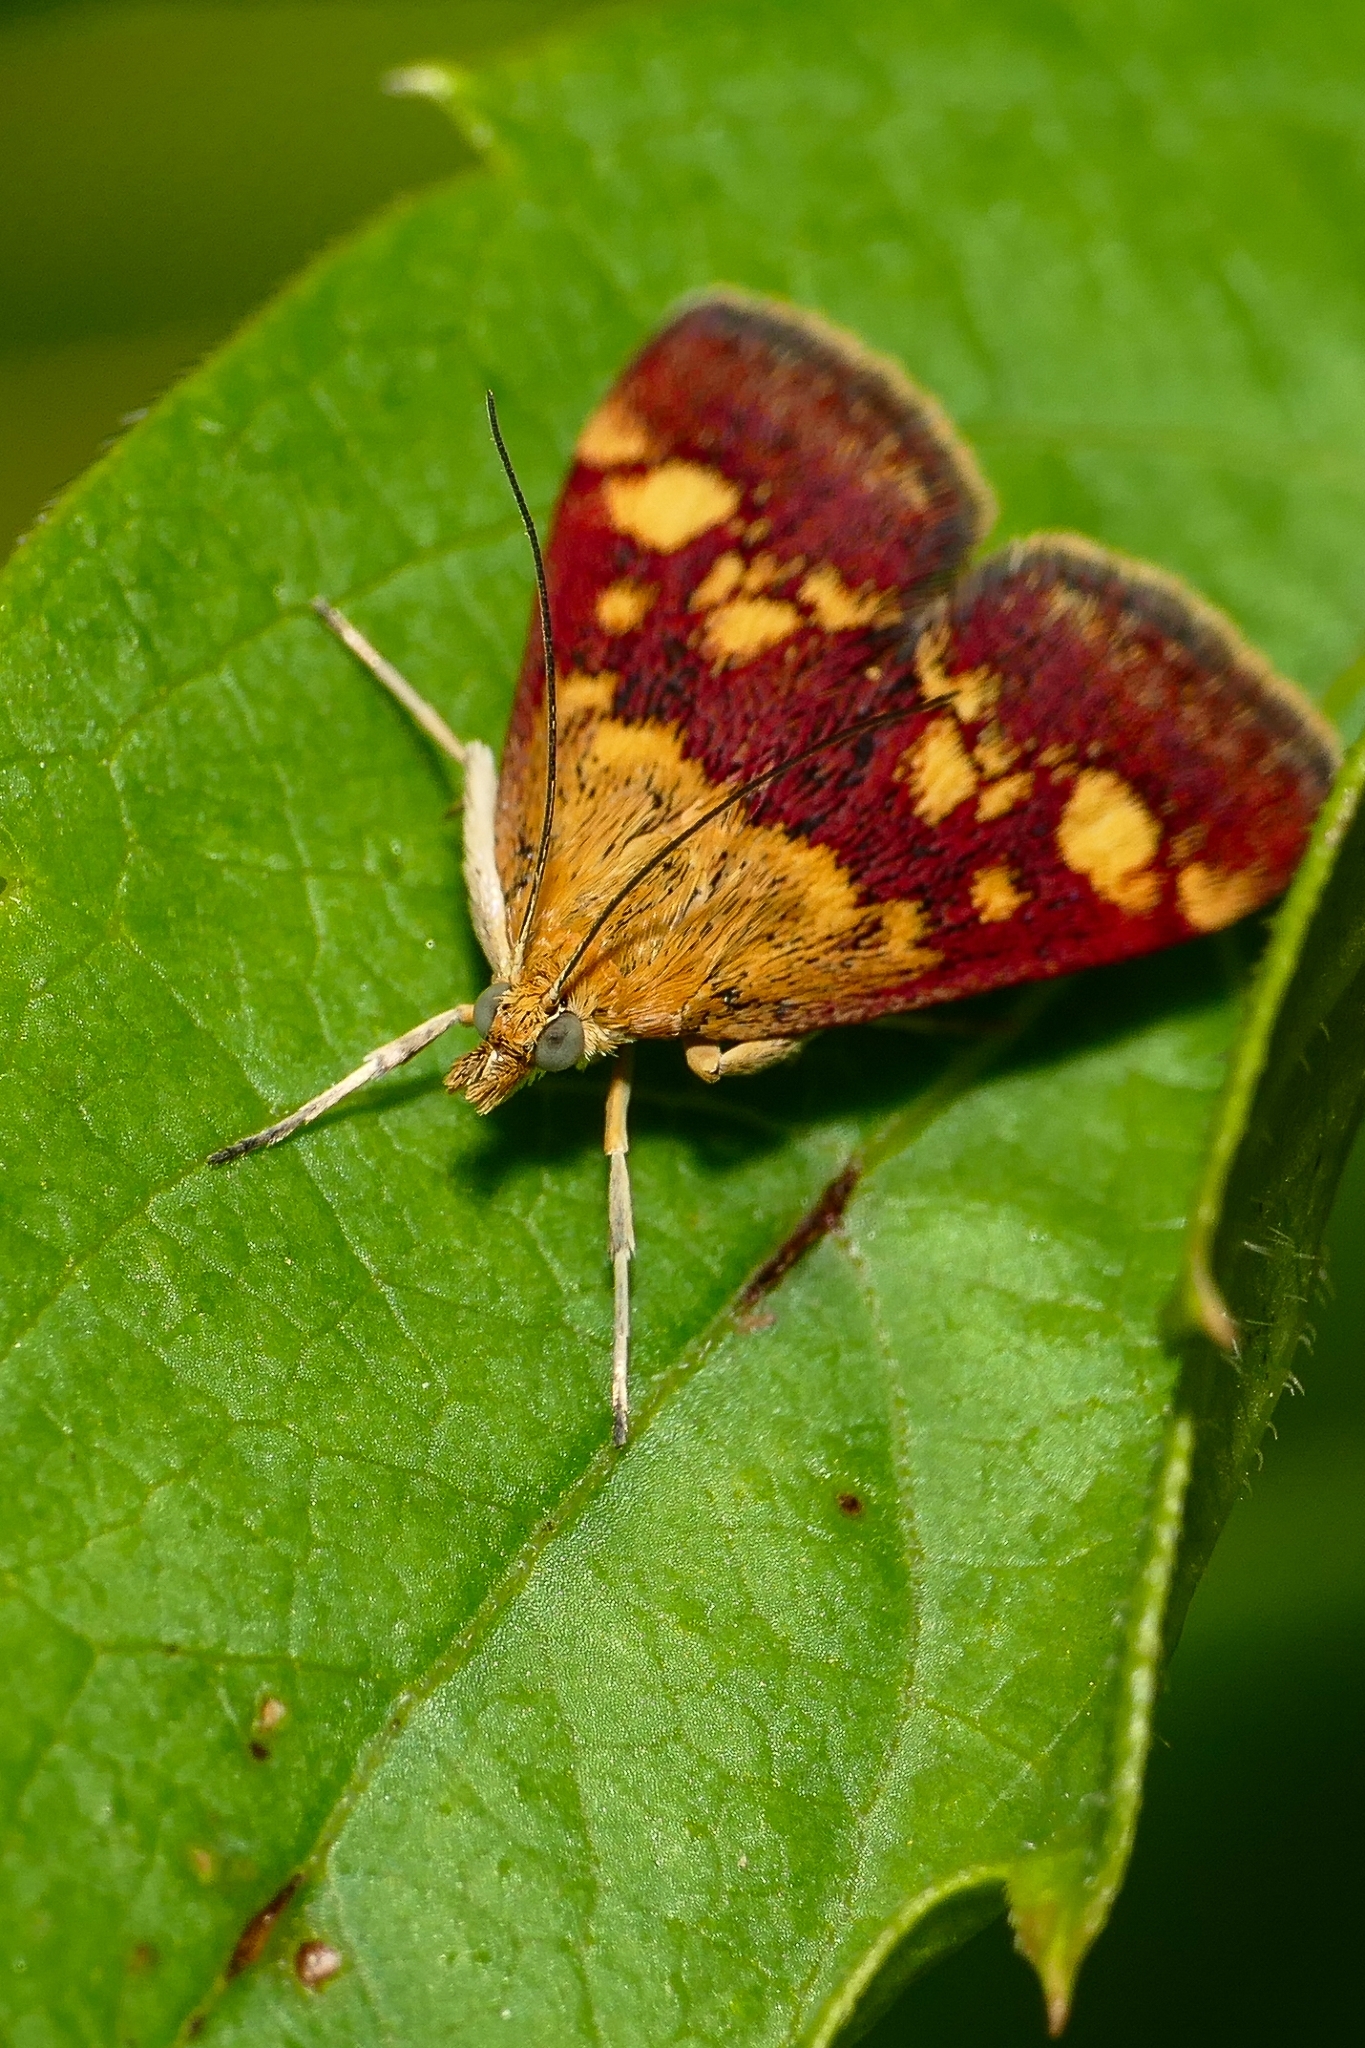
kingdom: Animalia
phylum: Arthropoda
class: Insecta
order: Lepidoptera
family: Crambidae
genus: Pyrausta
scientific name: Pyrausta aurata
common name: Small purple & gold
